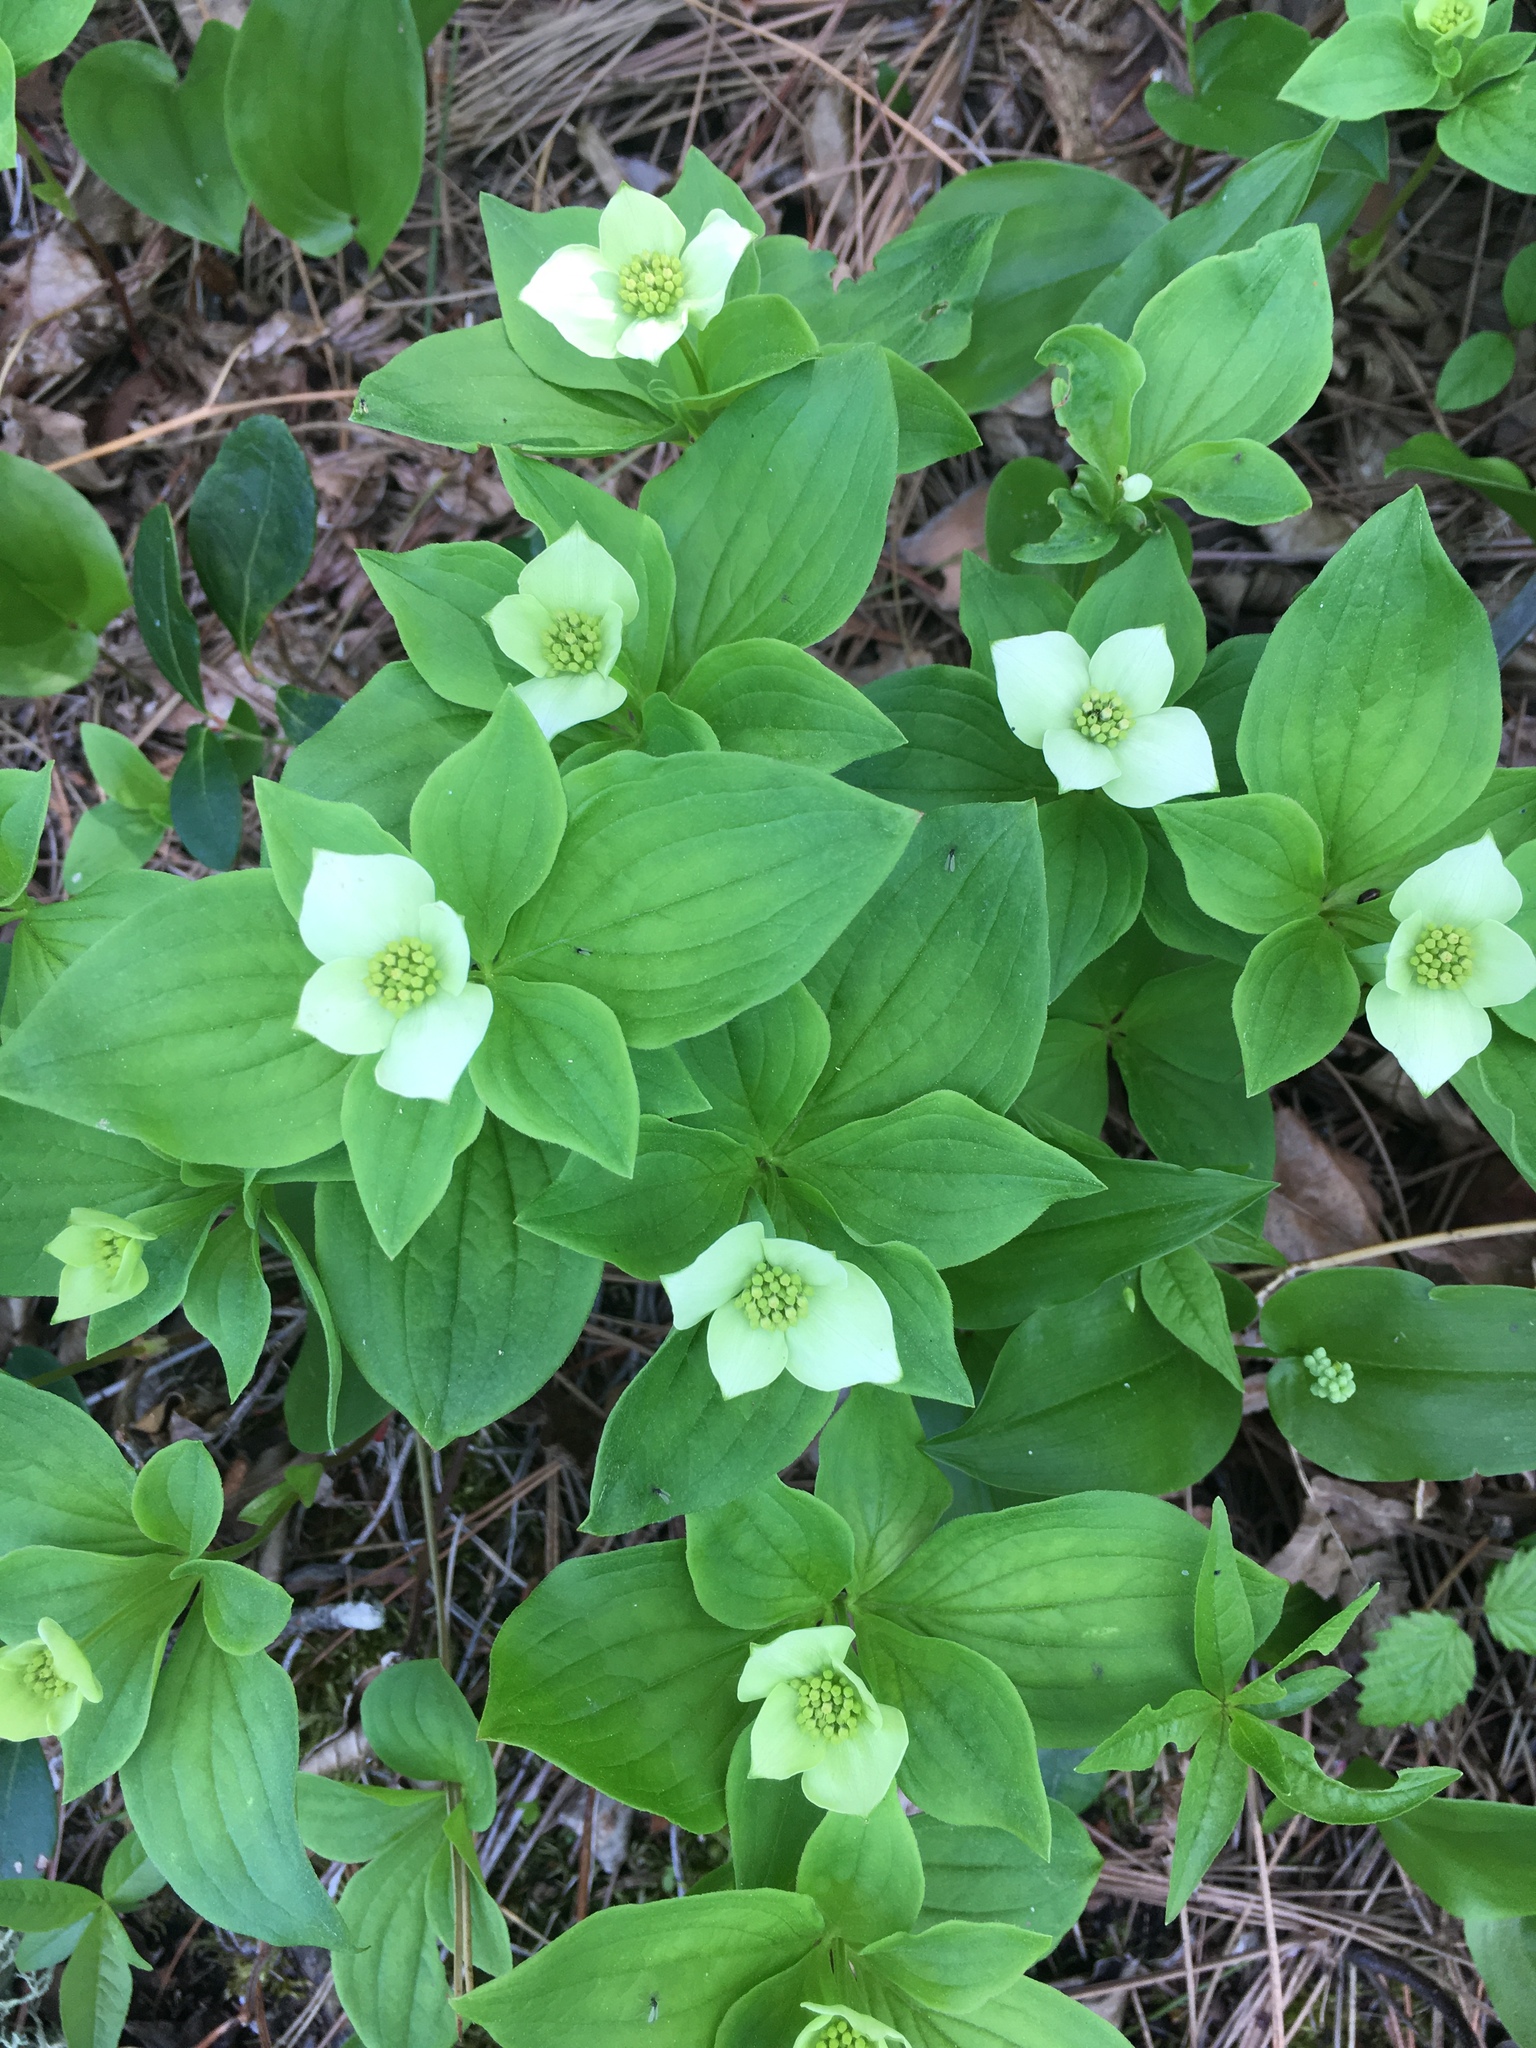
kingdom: Plantae
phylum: Tracheophyta
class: Magnoliopsida
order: Cornales
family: Cornaceae
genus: Cornus
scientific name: Cornus canadensis
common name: Creeping dogwood
